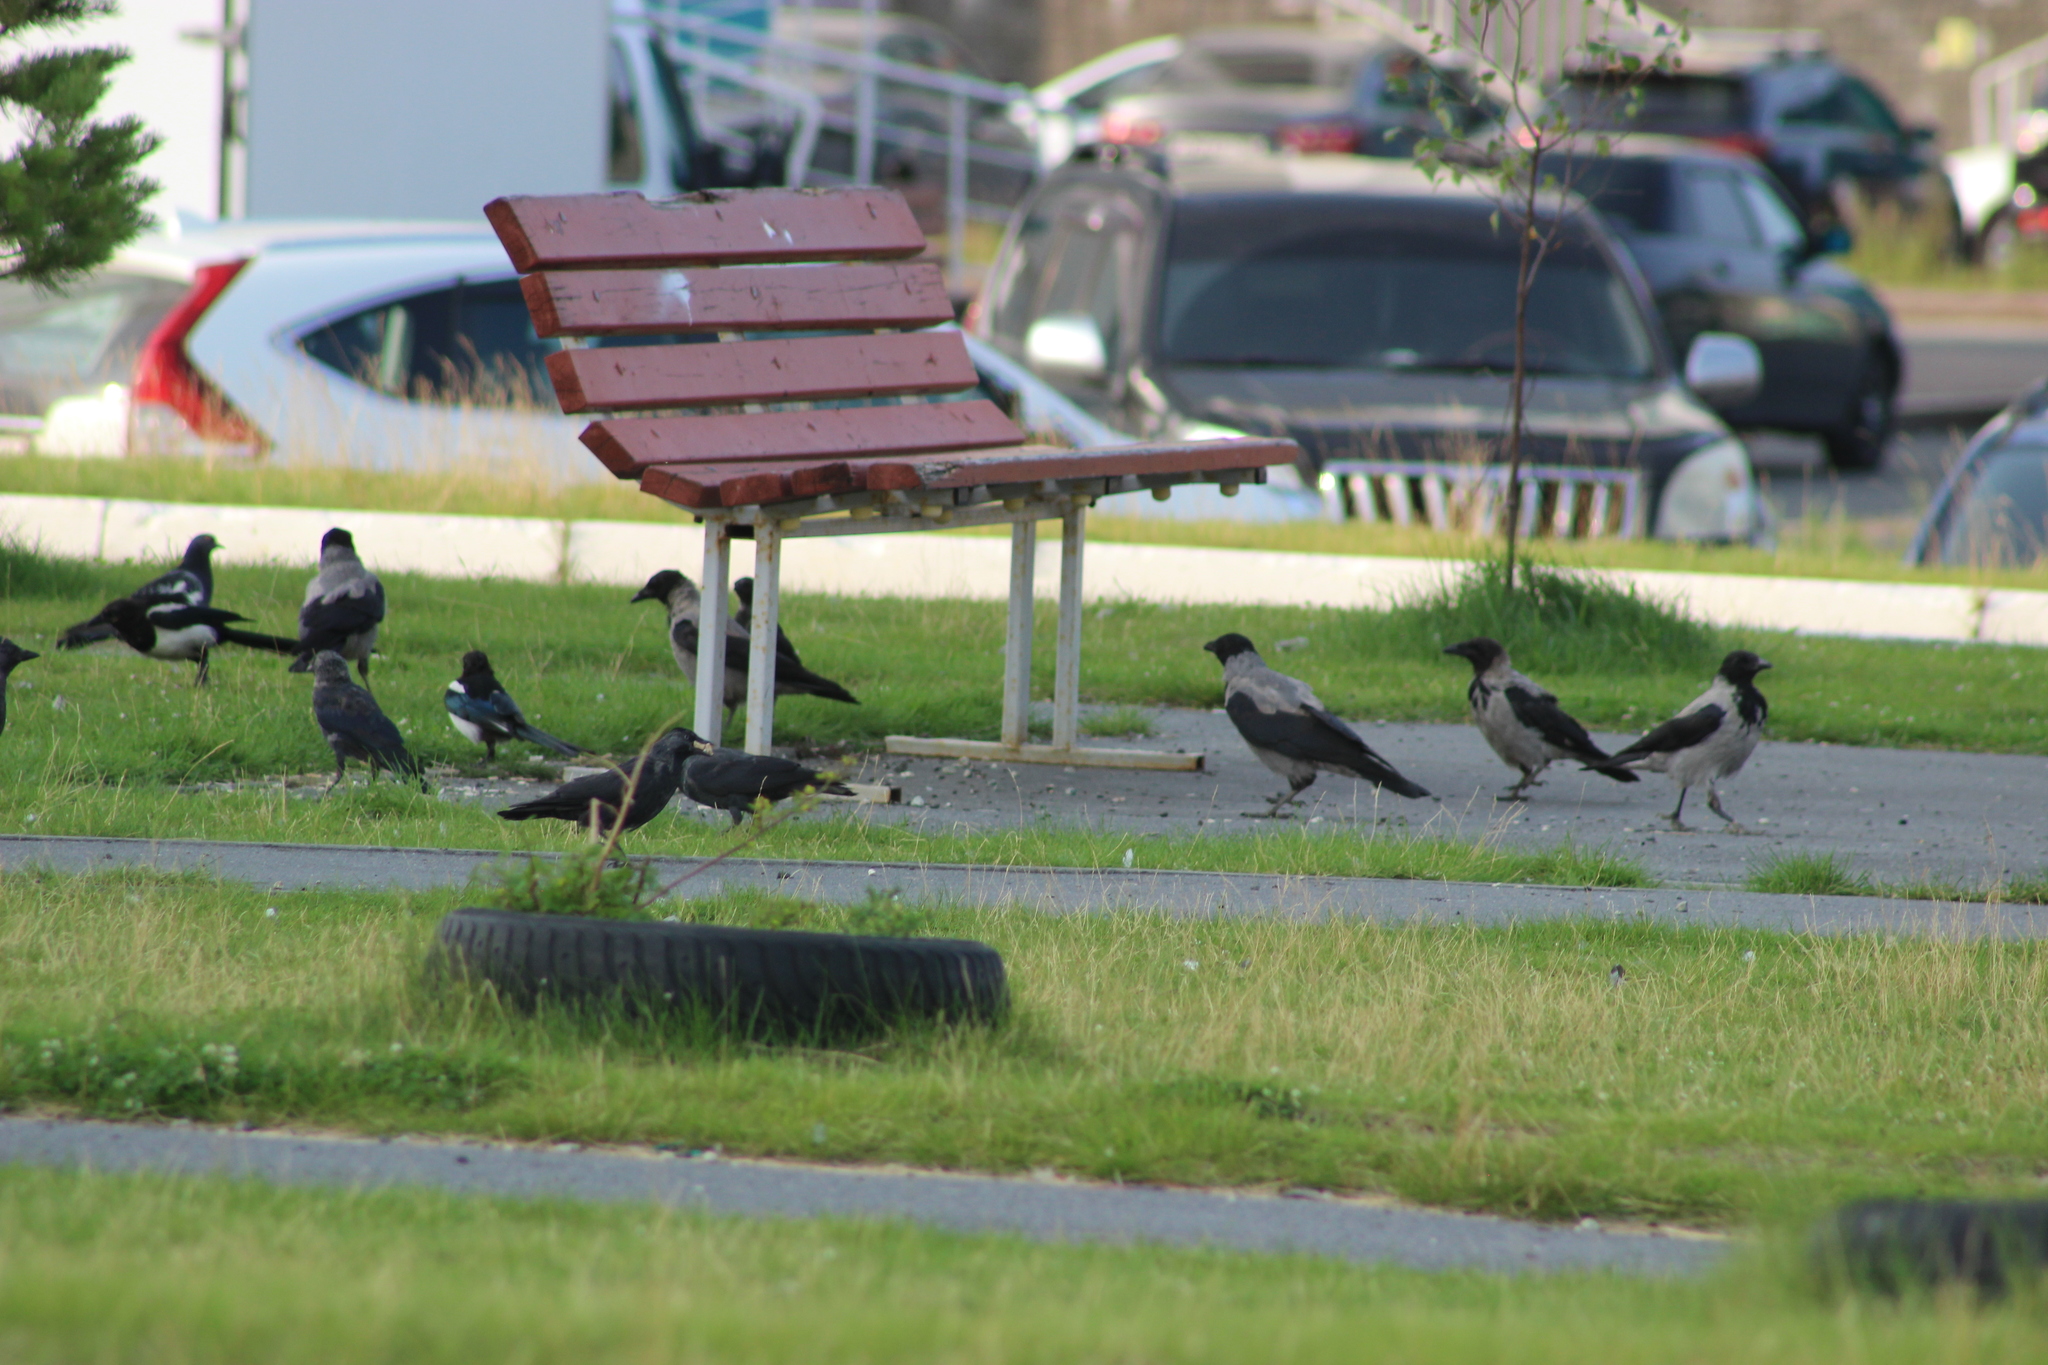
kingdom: Animalia
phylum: Chordata
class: Aves
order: Passeriformes
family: Corvidae
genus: Pica
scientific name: Pica pica
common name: Eurasian magpie
